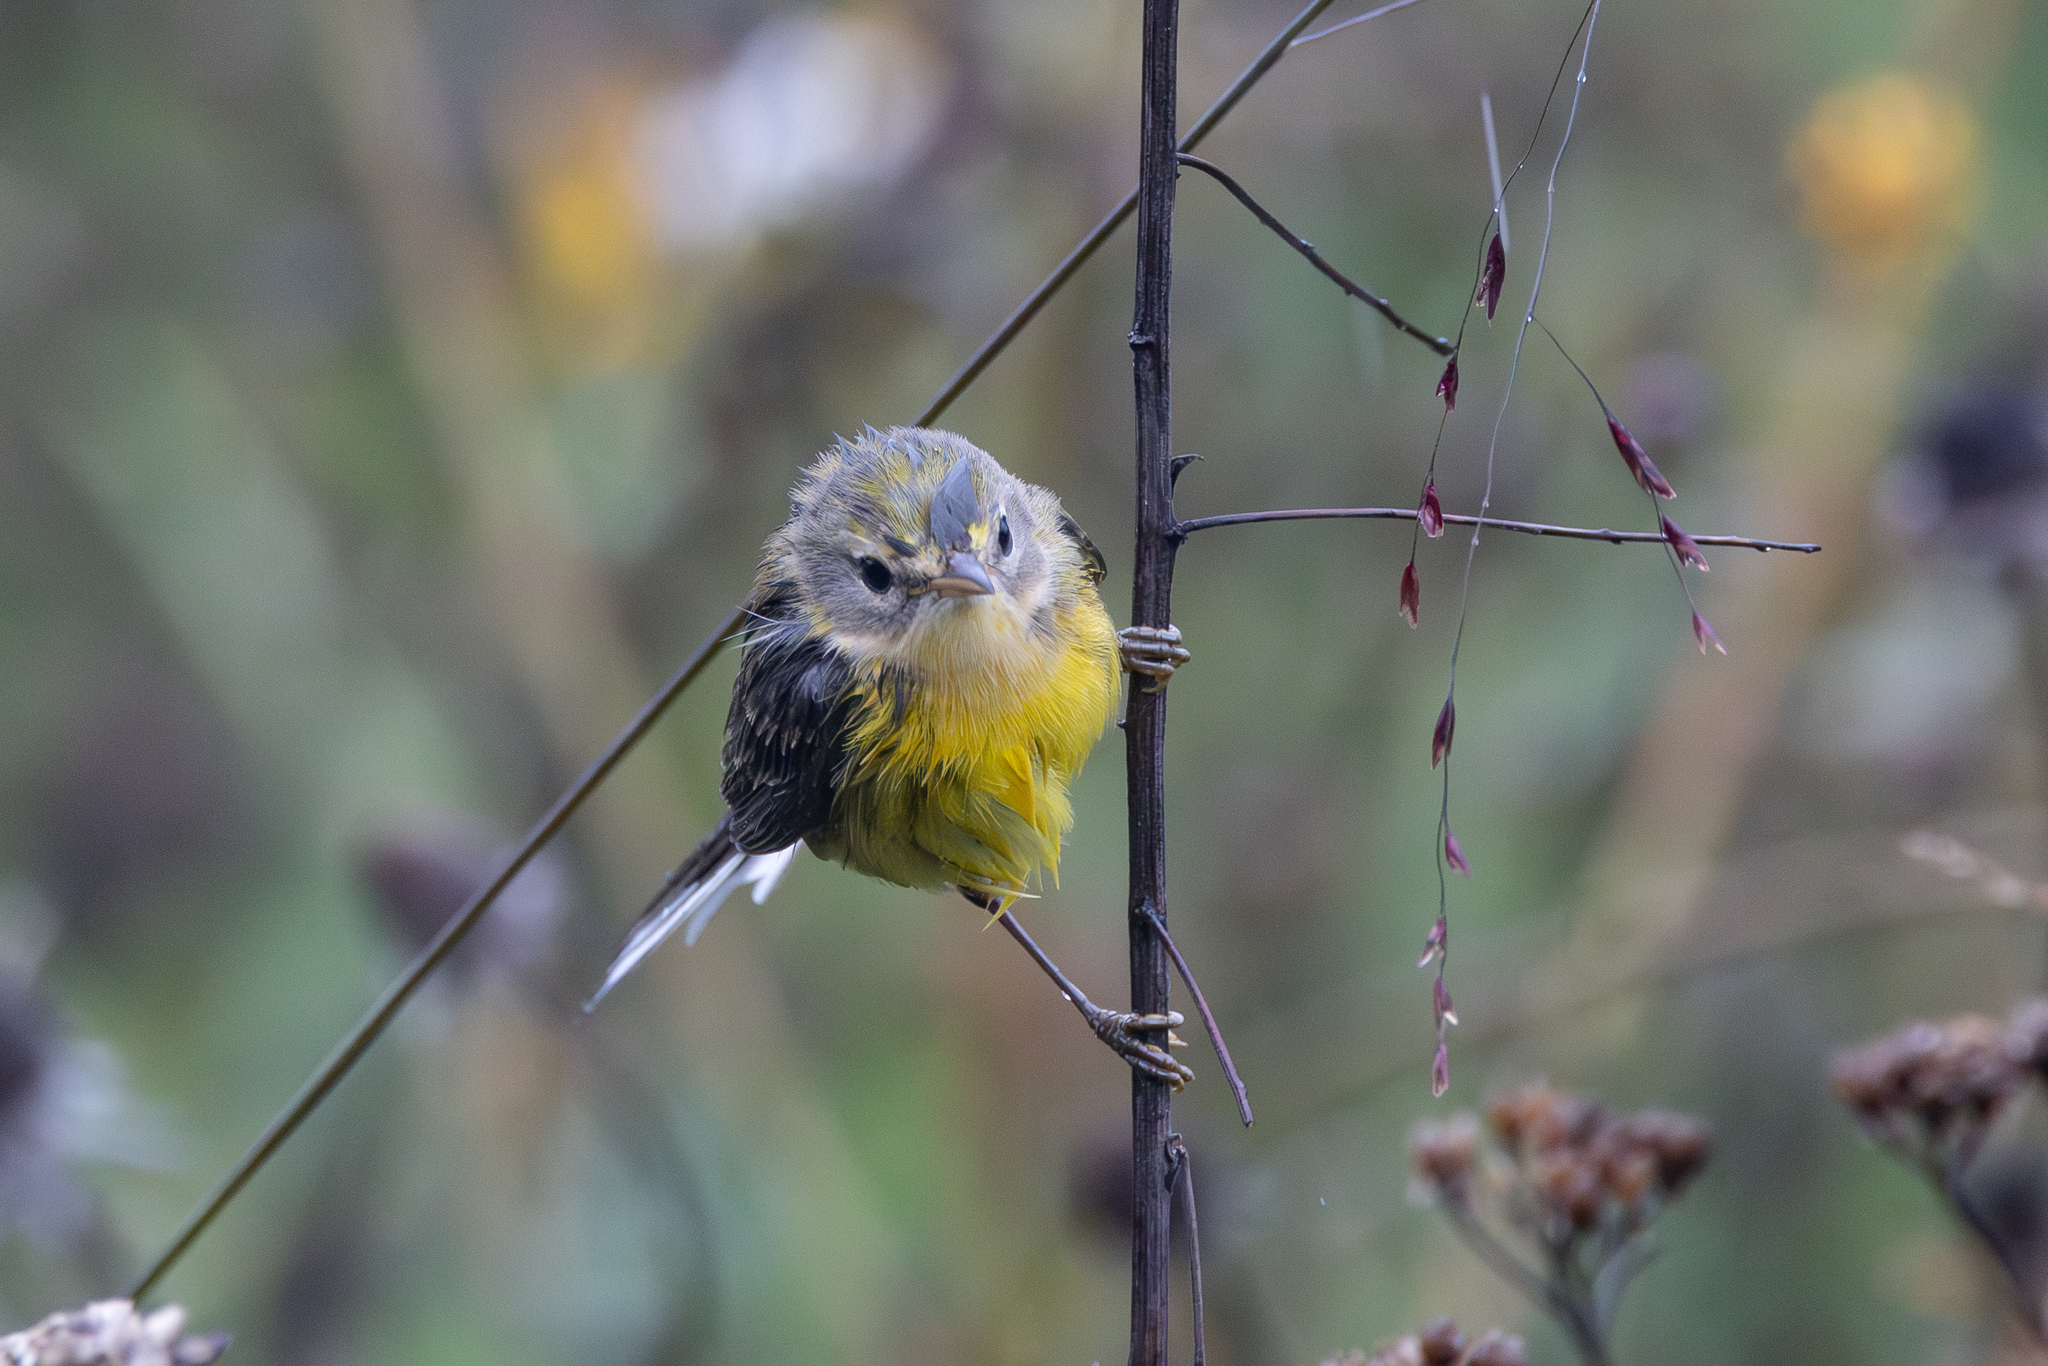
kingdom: Animalia
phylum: Chordata
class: Aves
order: Passeriformes
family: Parulidae
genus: Setophaga
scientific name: Setophaga discolor
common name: Prairie warbler
